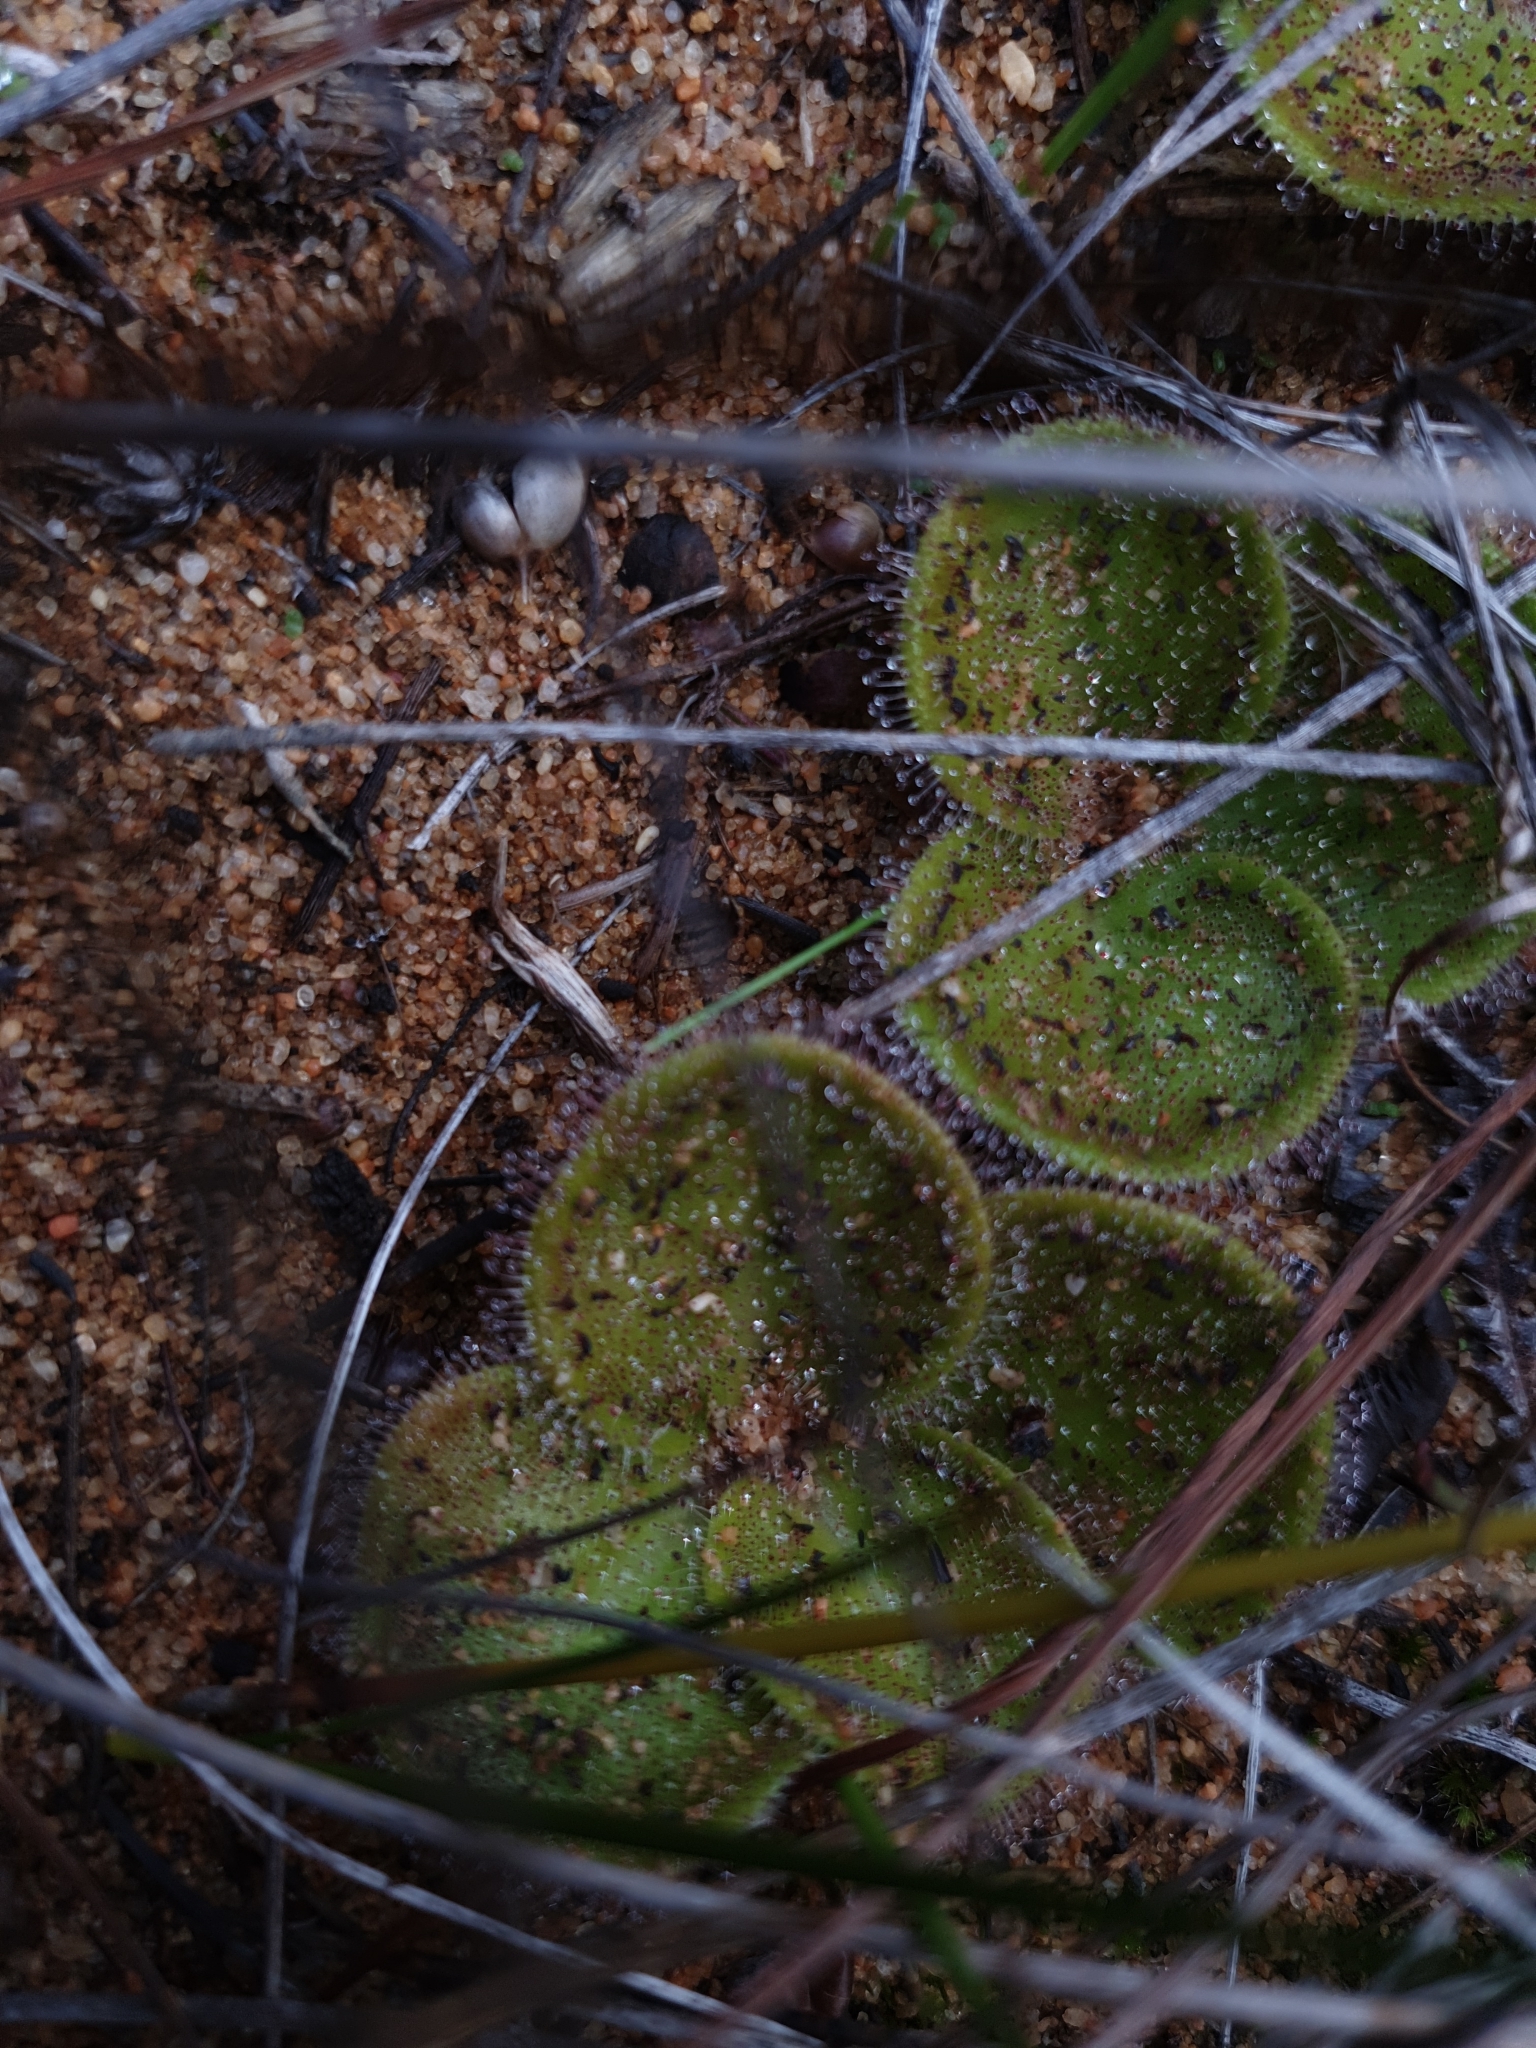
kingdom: Plantae
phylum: Tracheophyta
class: Magnoliopsida
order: Caryophyllales
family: Droseraceae
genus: Drosera
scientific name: Drosera erythrorhiza
